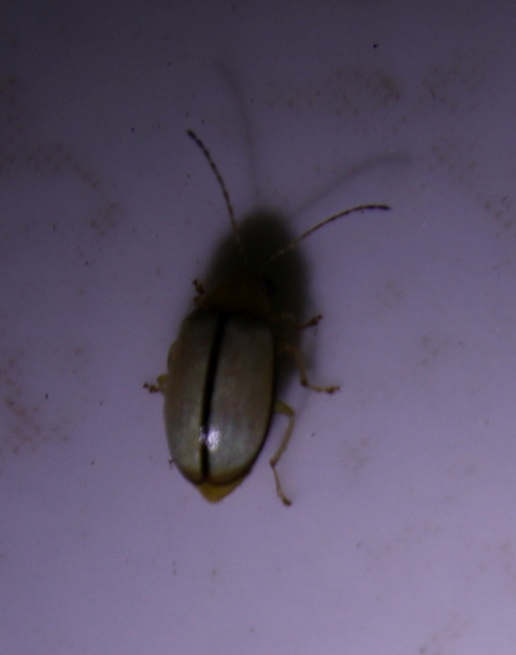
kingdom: Animalia
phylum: Arthropoda
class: Insecta
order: Coleoptera
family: Chrysomelidae
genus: Panafrolepta
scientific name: Panafrolepta
